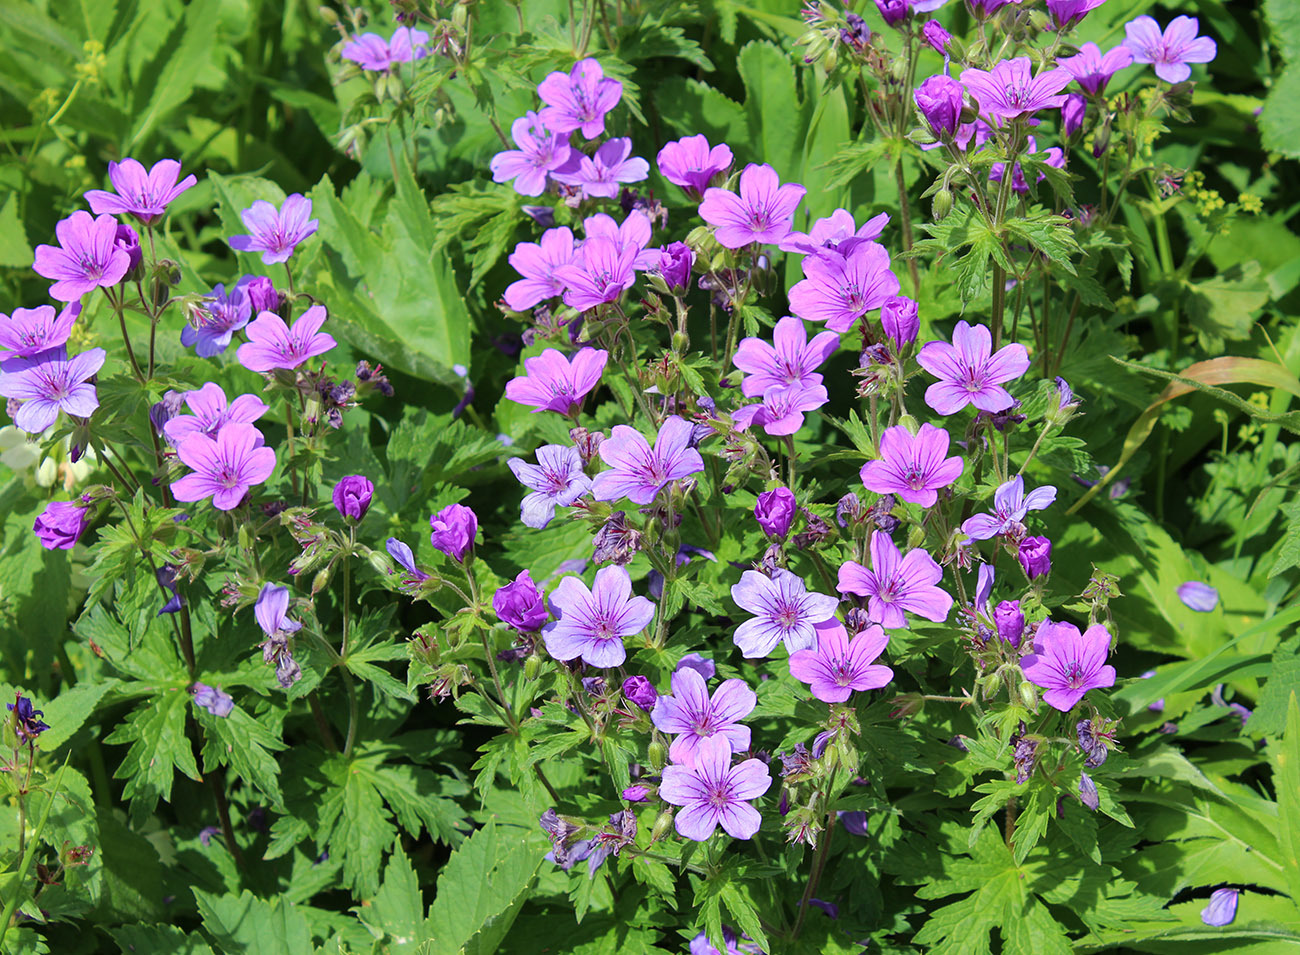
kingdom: Plantae
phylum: Tracheophyta
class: Magnoliopsida
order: Geraniales
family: Geraniaceae
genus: Geranium
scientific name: Geranium sylvaticum
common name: Wood crane's-bill
